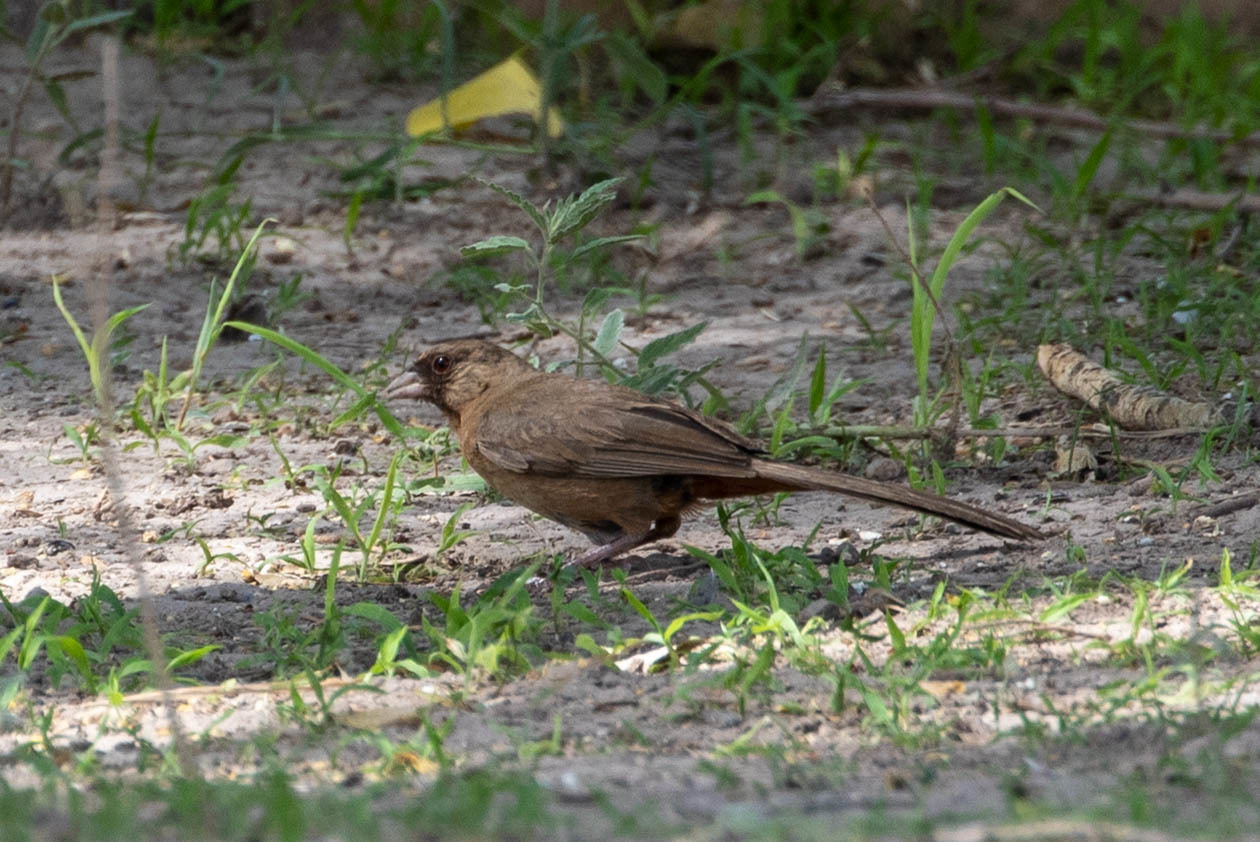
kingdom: Animalia
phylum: Chordata
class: Aves
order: Passeriformes
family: Passerellidae
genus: Melozone
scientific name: Melozone aberti
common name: Abert's towhee
